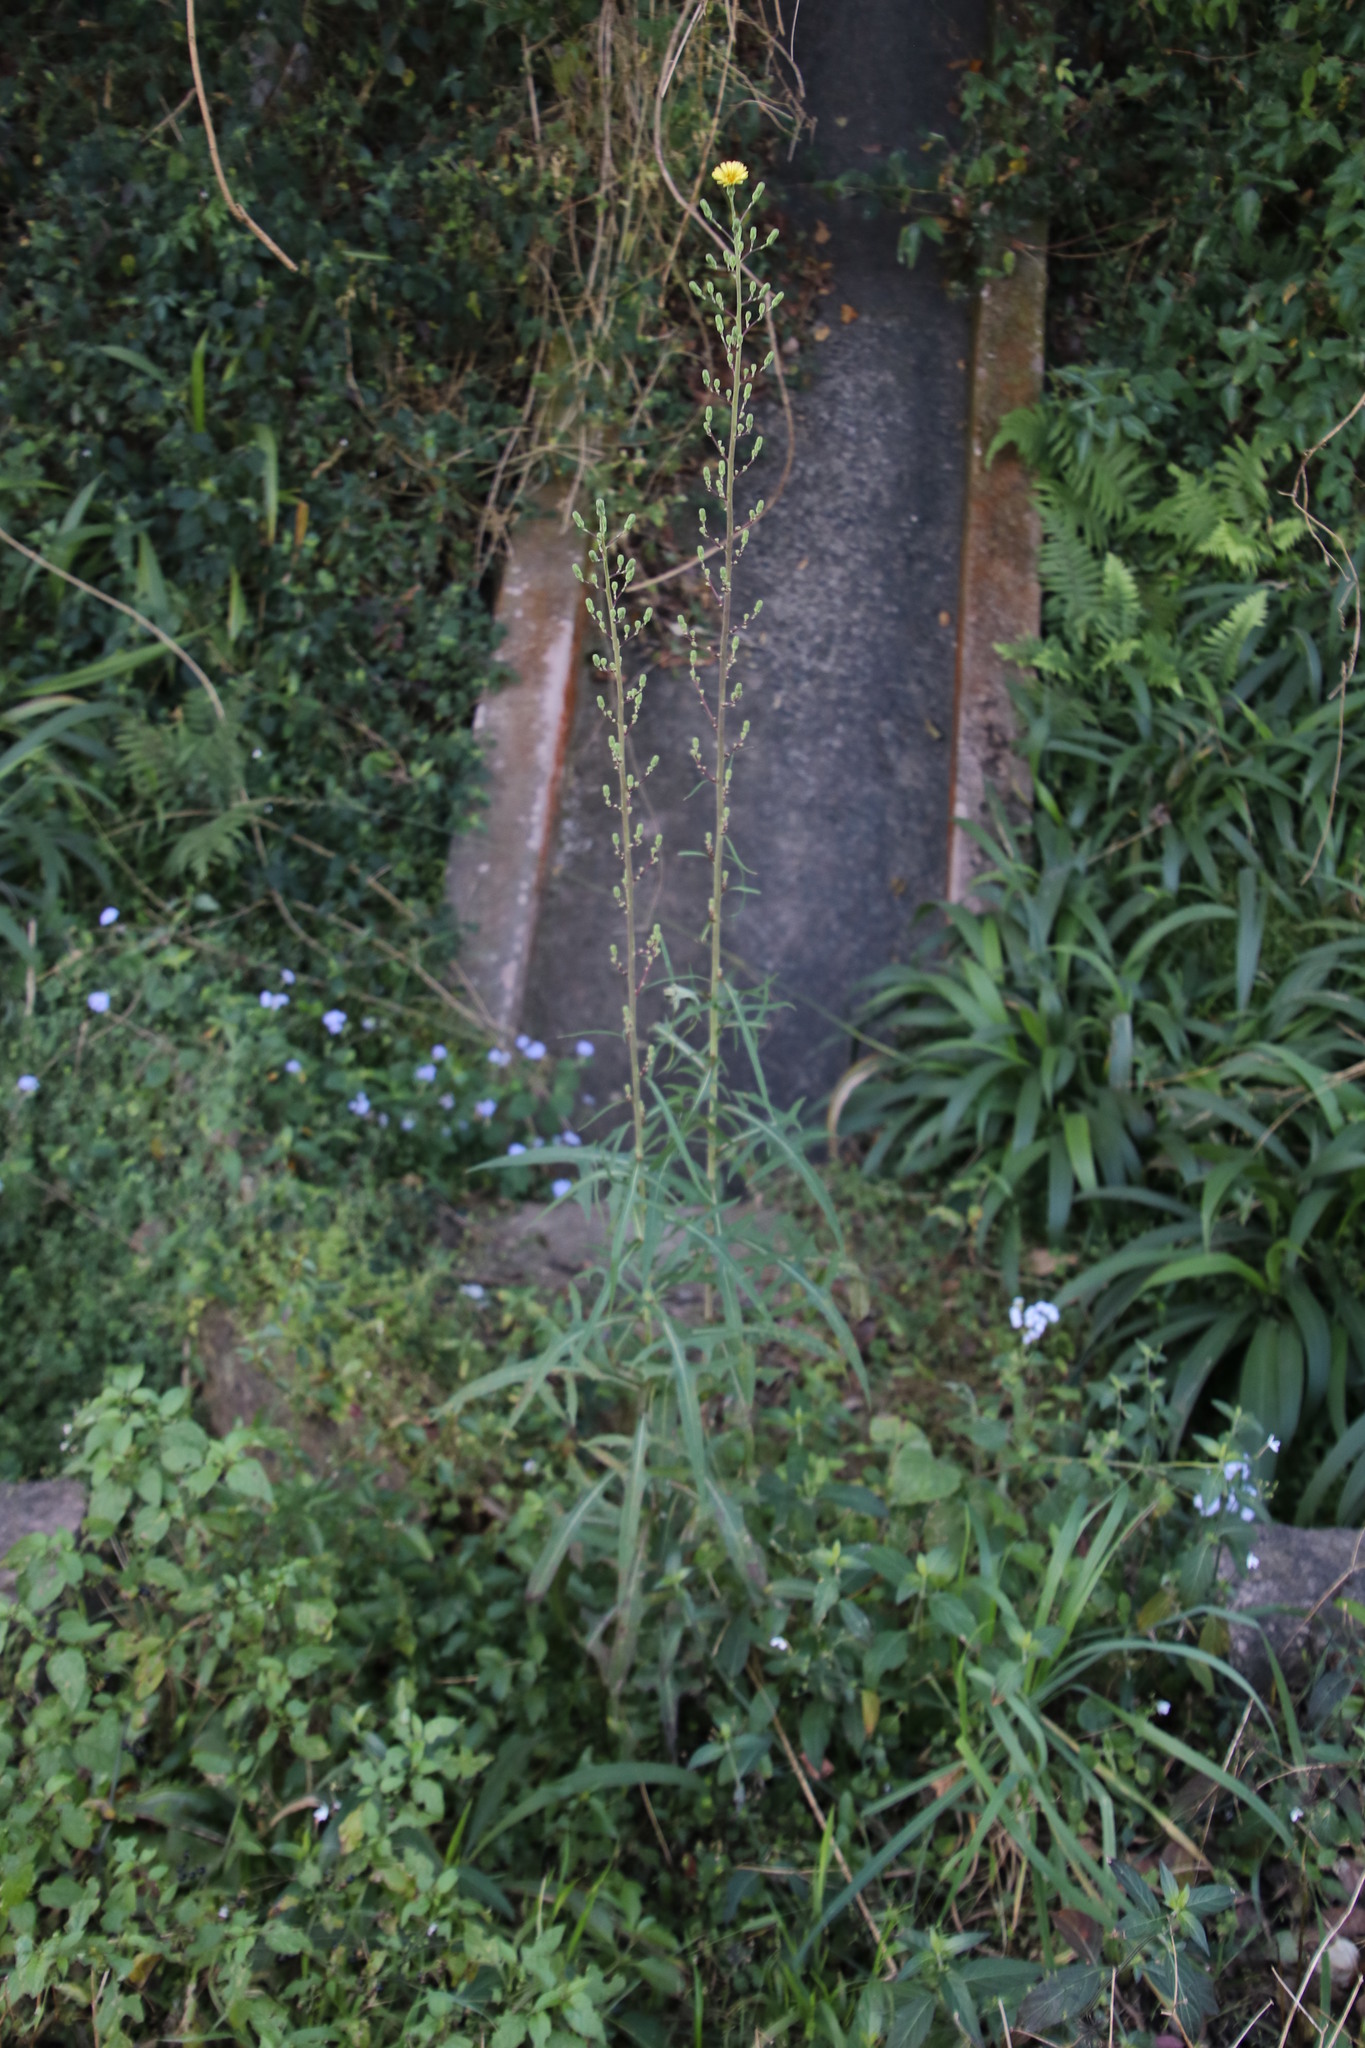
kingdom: Plantae
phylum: Tracheophyta
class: Magnoliopsida
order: Asterales
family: Asteraceae
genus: Lactuca
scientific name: Lactuca indica
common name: Wild lettuce
